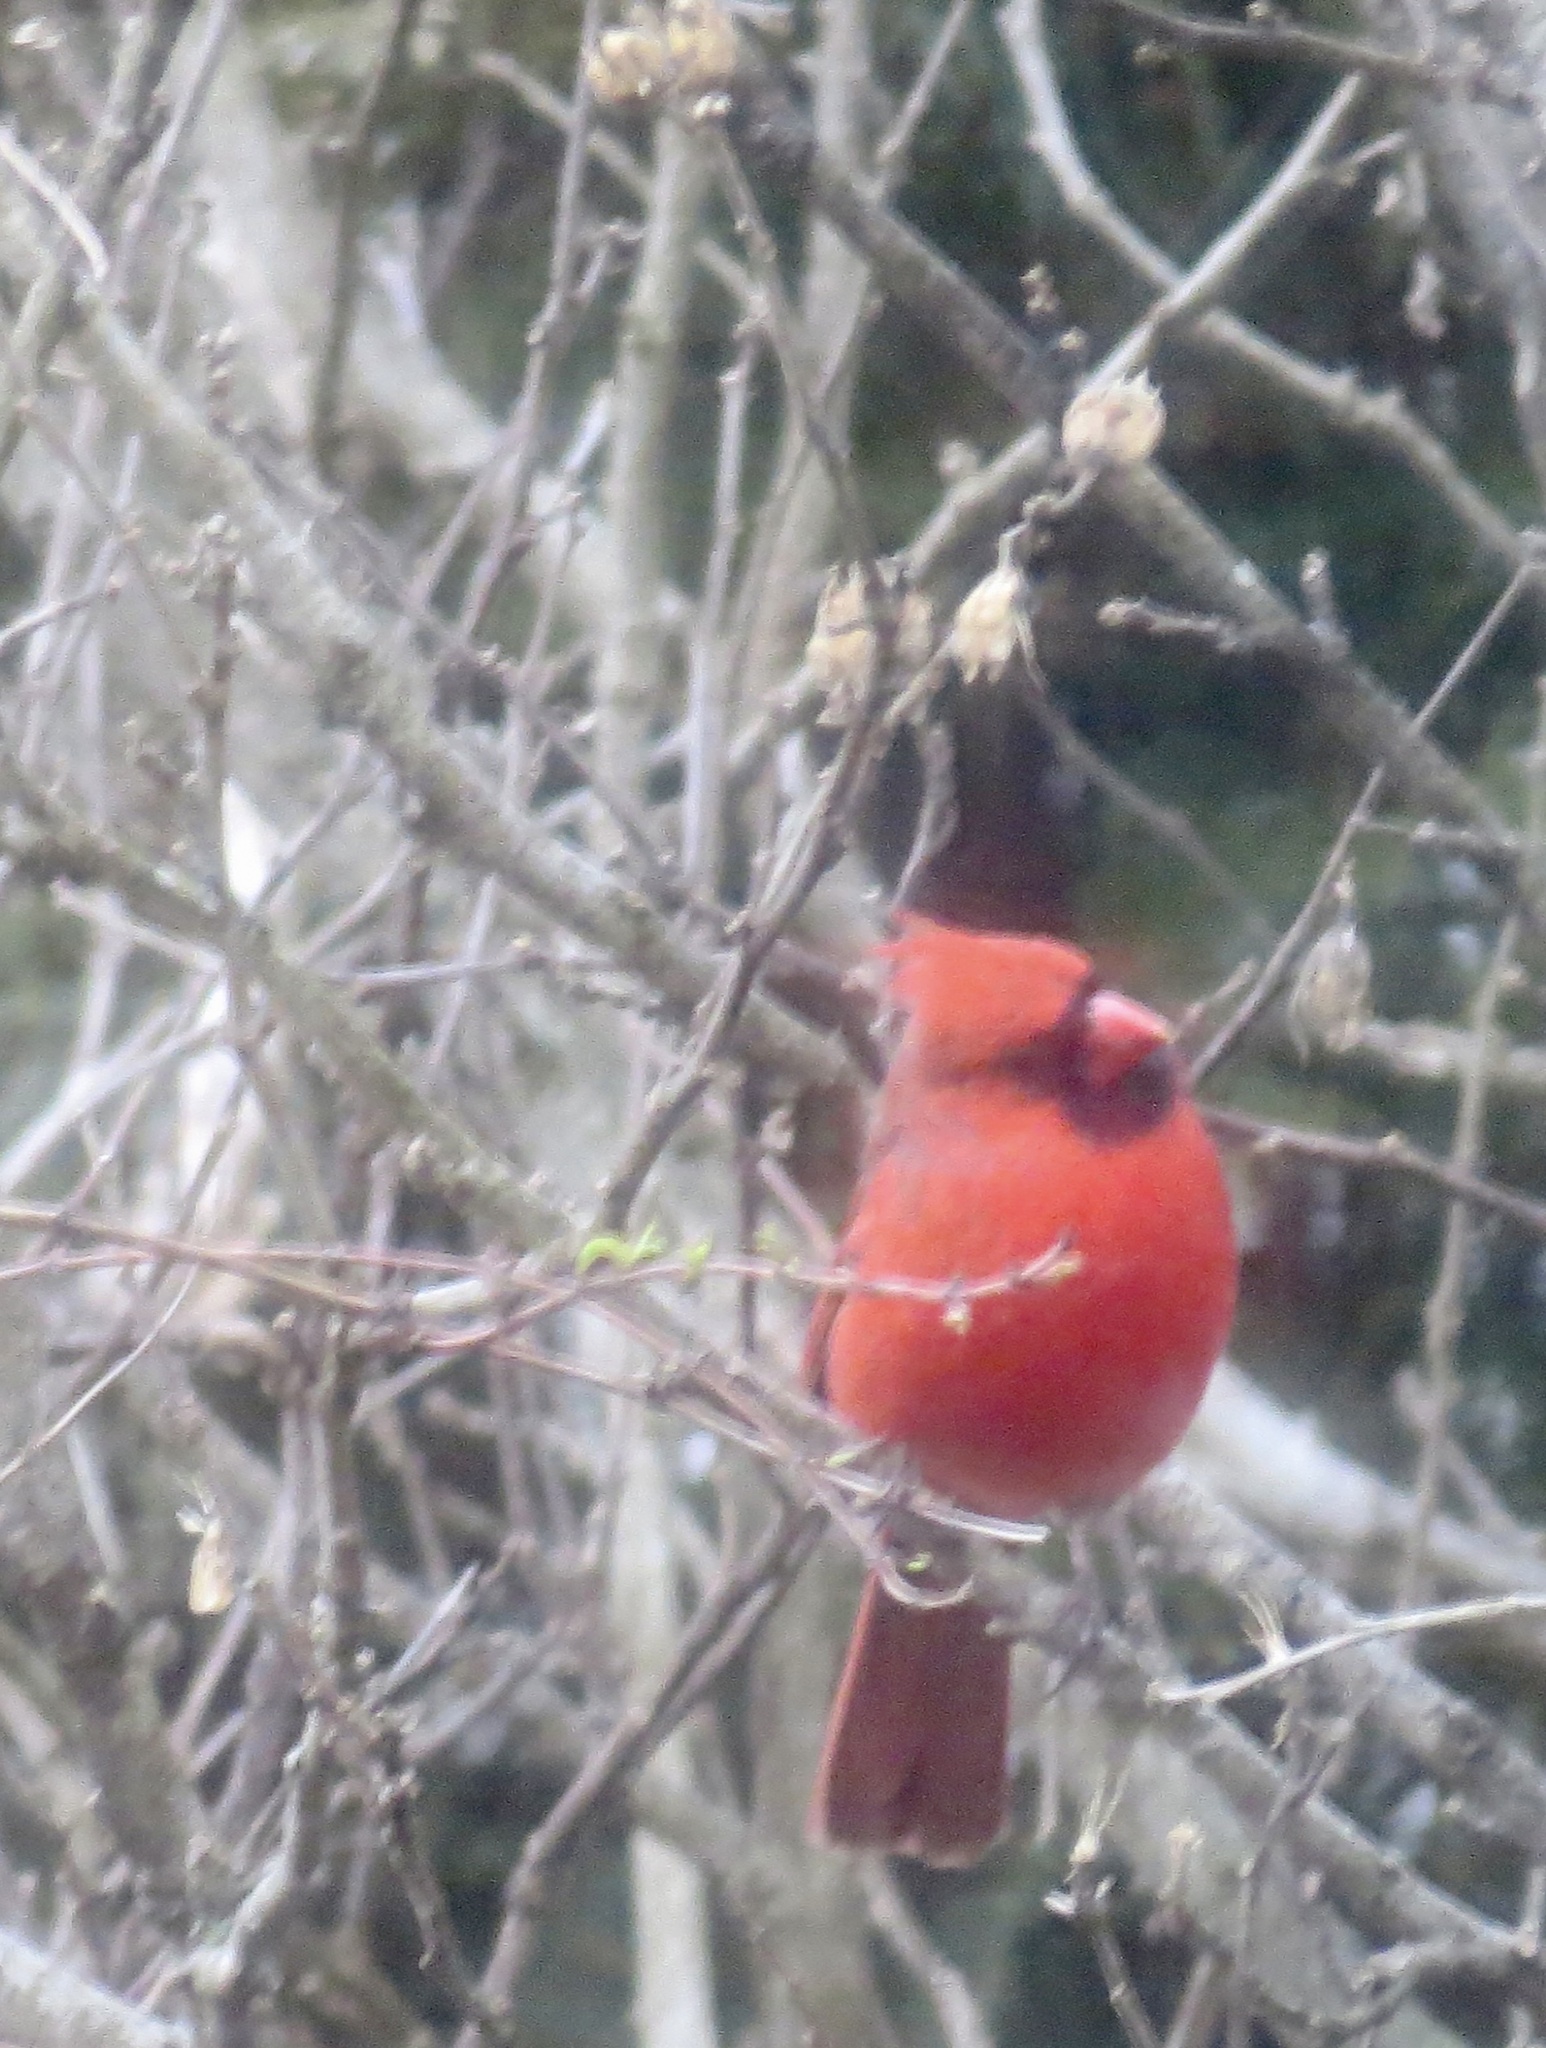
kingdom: Animalia
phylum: Chordata
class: Aves
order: Passeriformes
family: Cardinalidae
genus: Cardinalis
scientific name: Cardinalis cardinalis
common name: Northern cardinal
